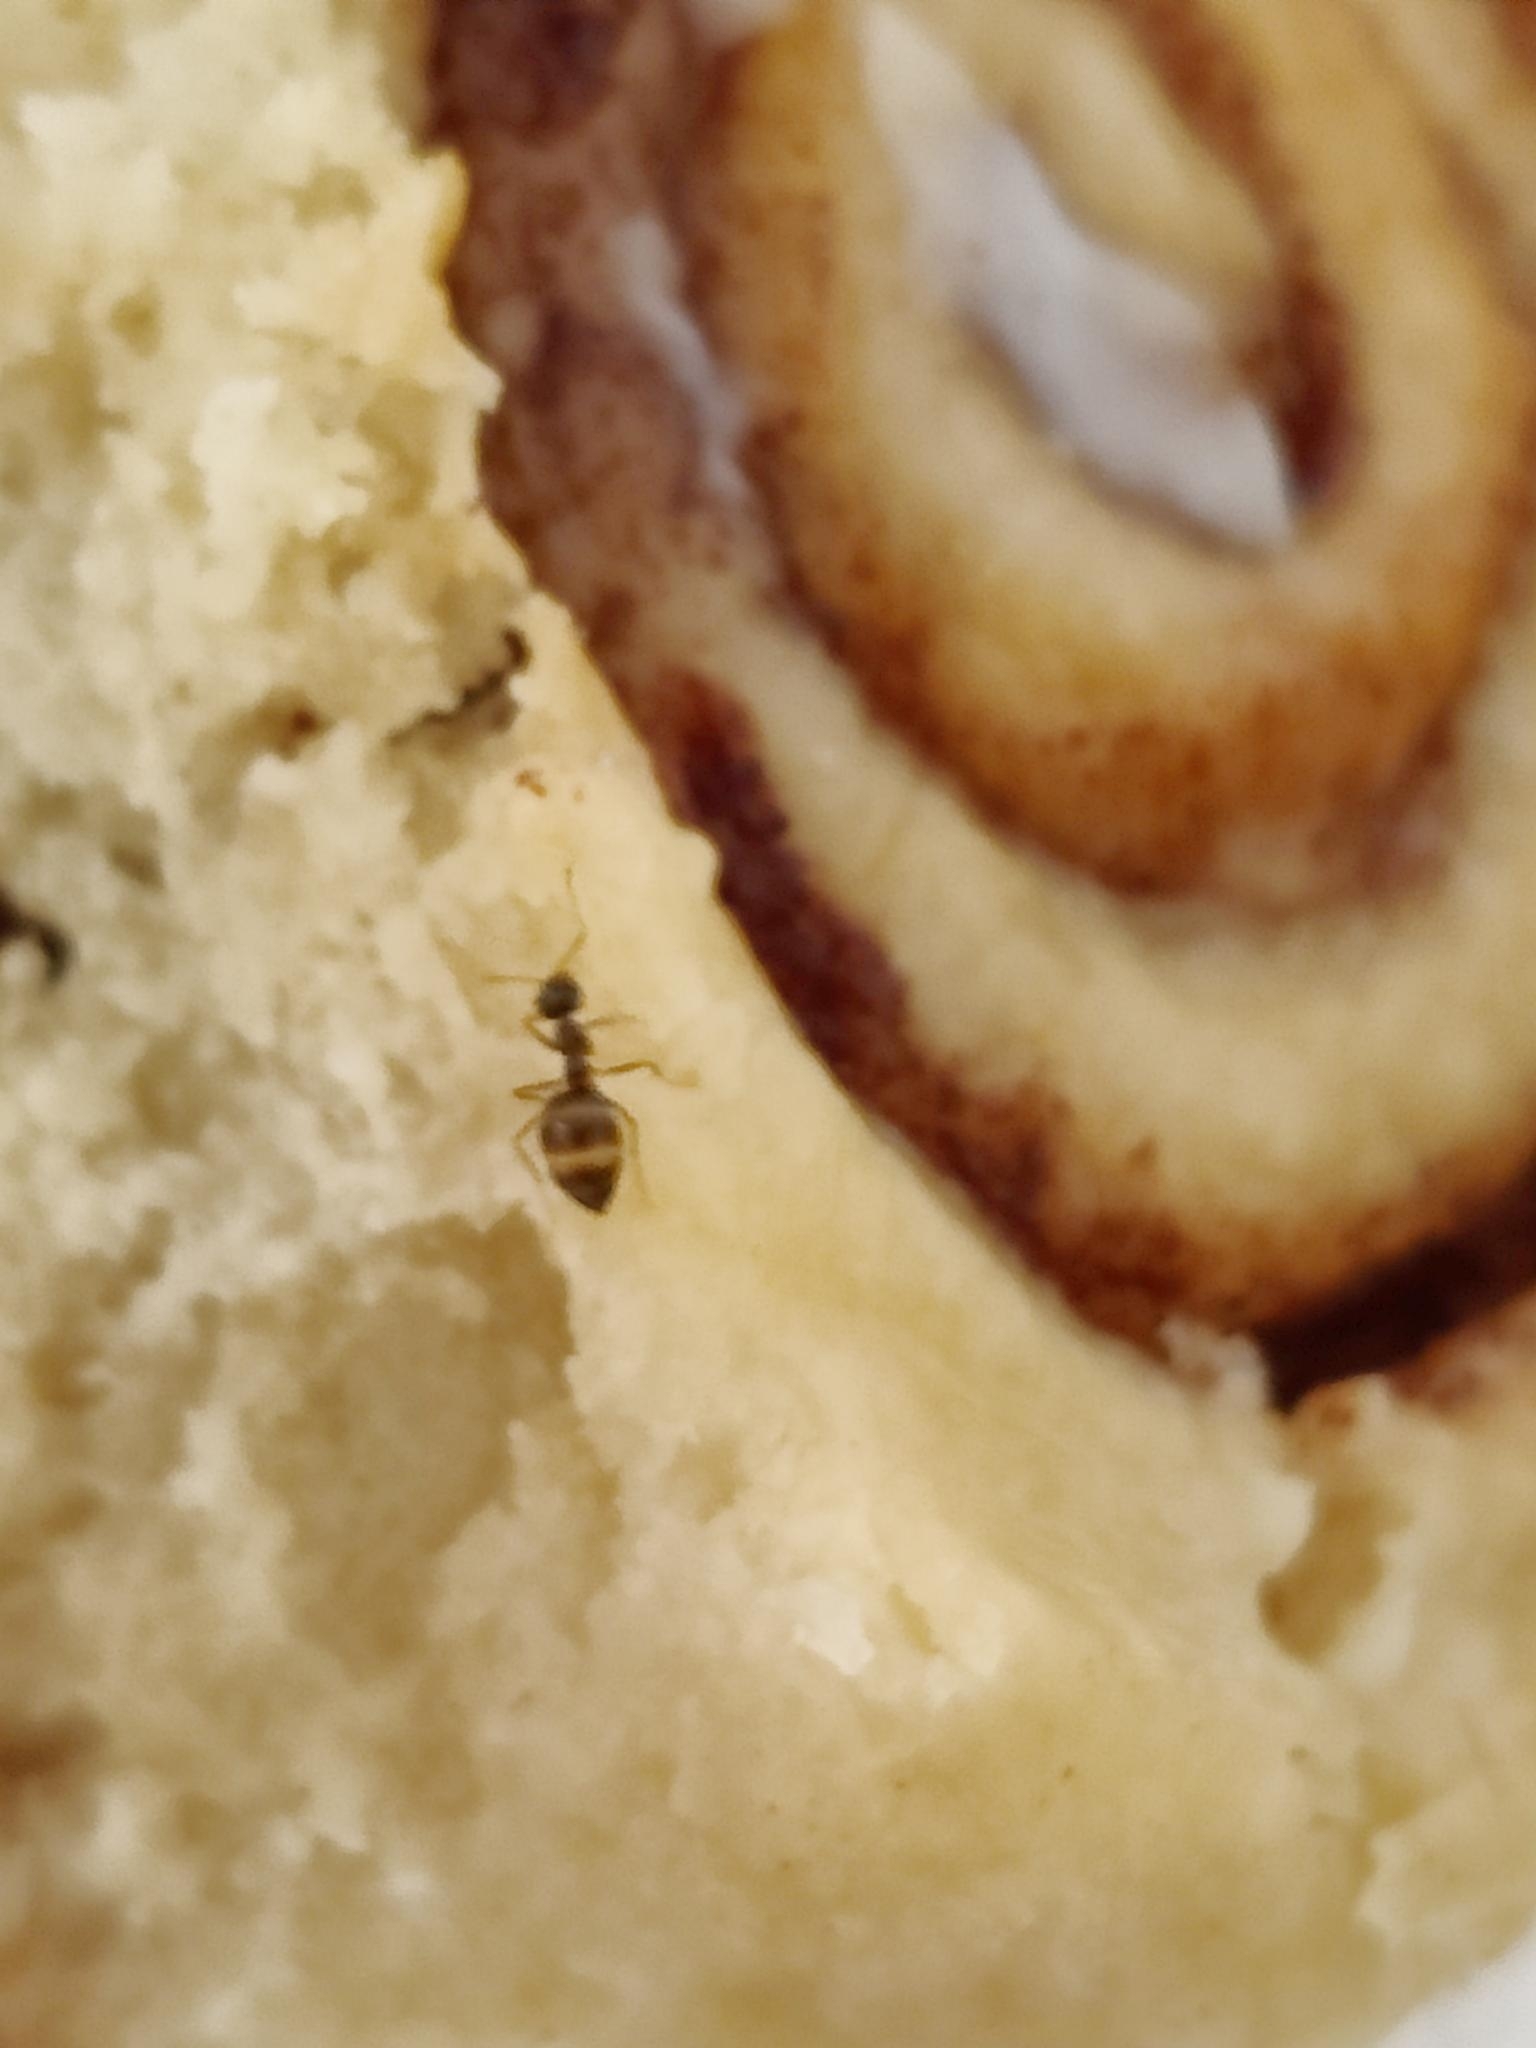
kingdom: Animalia
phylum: Arthropoda
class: Insecta
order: Hymenoptera
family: Formicidae
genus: Prenolepis
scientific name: Prenolepis imparis
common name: Small honey ant
